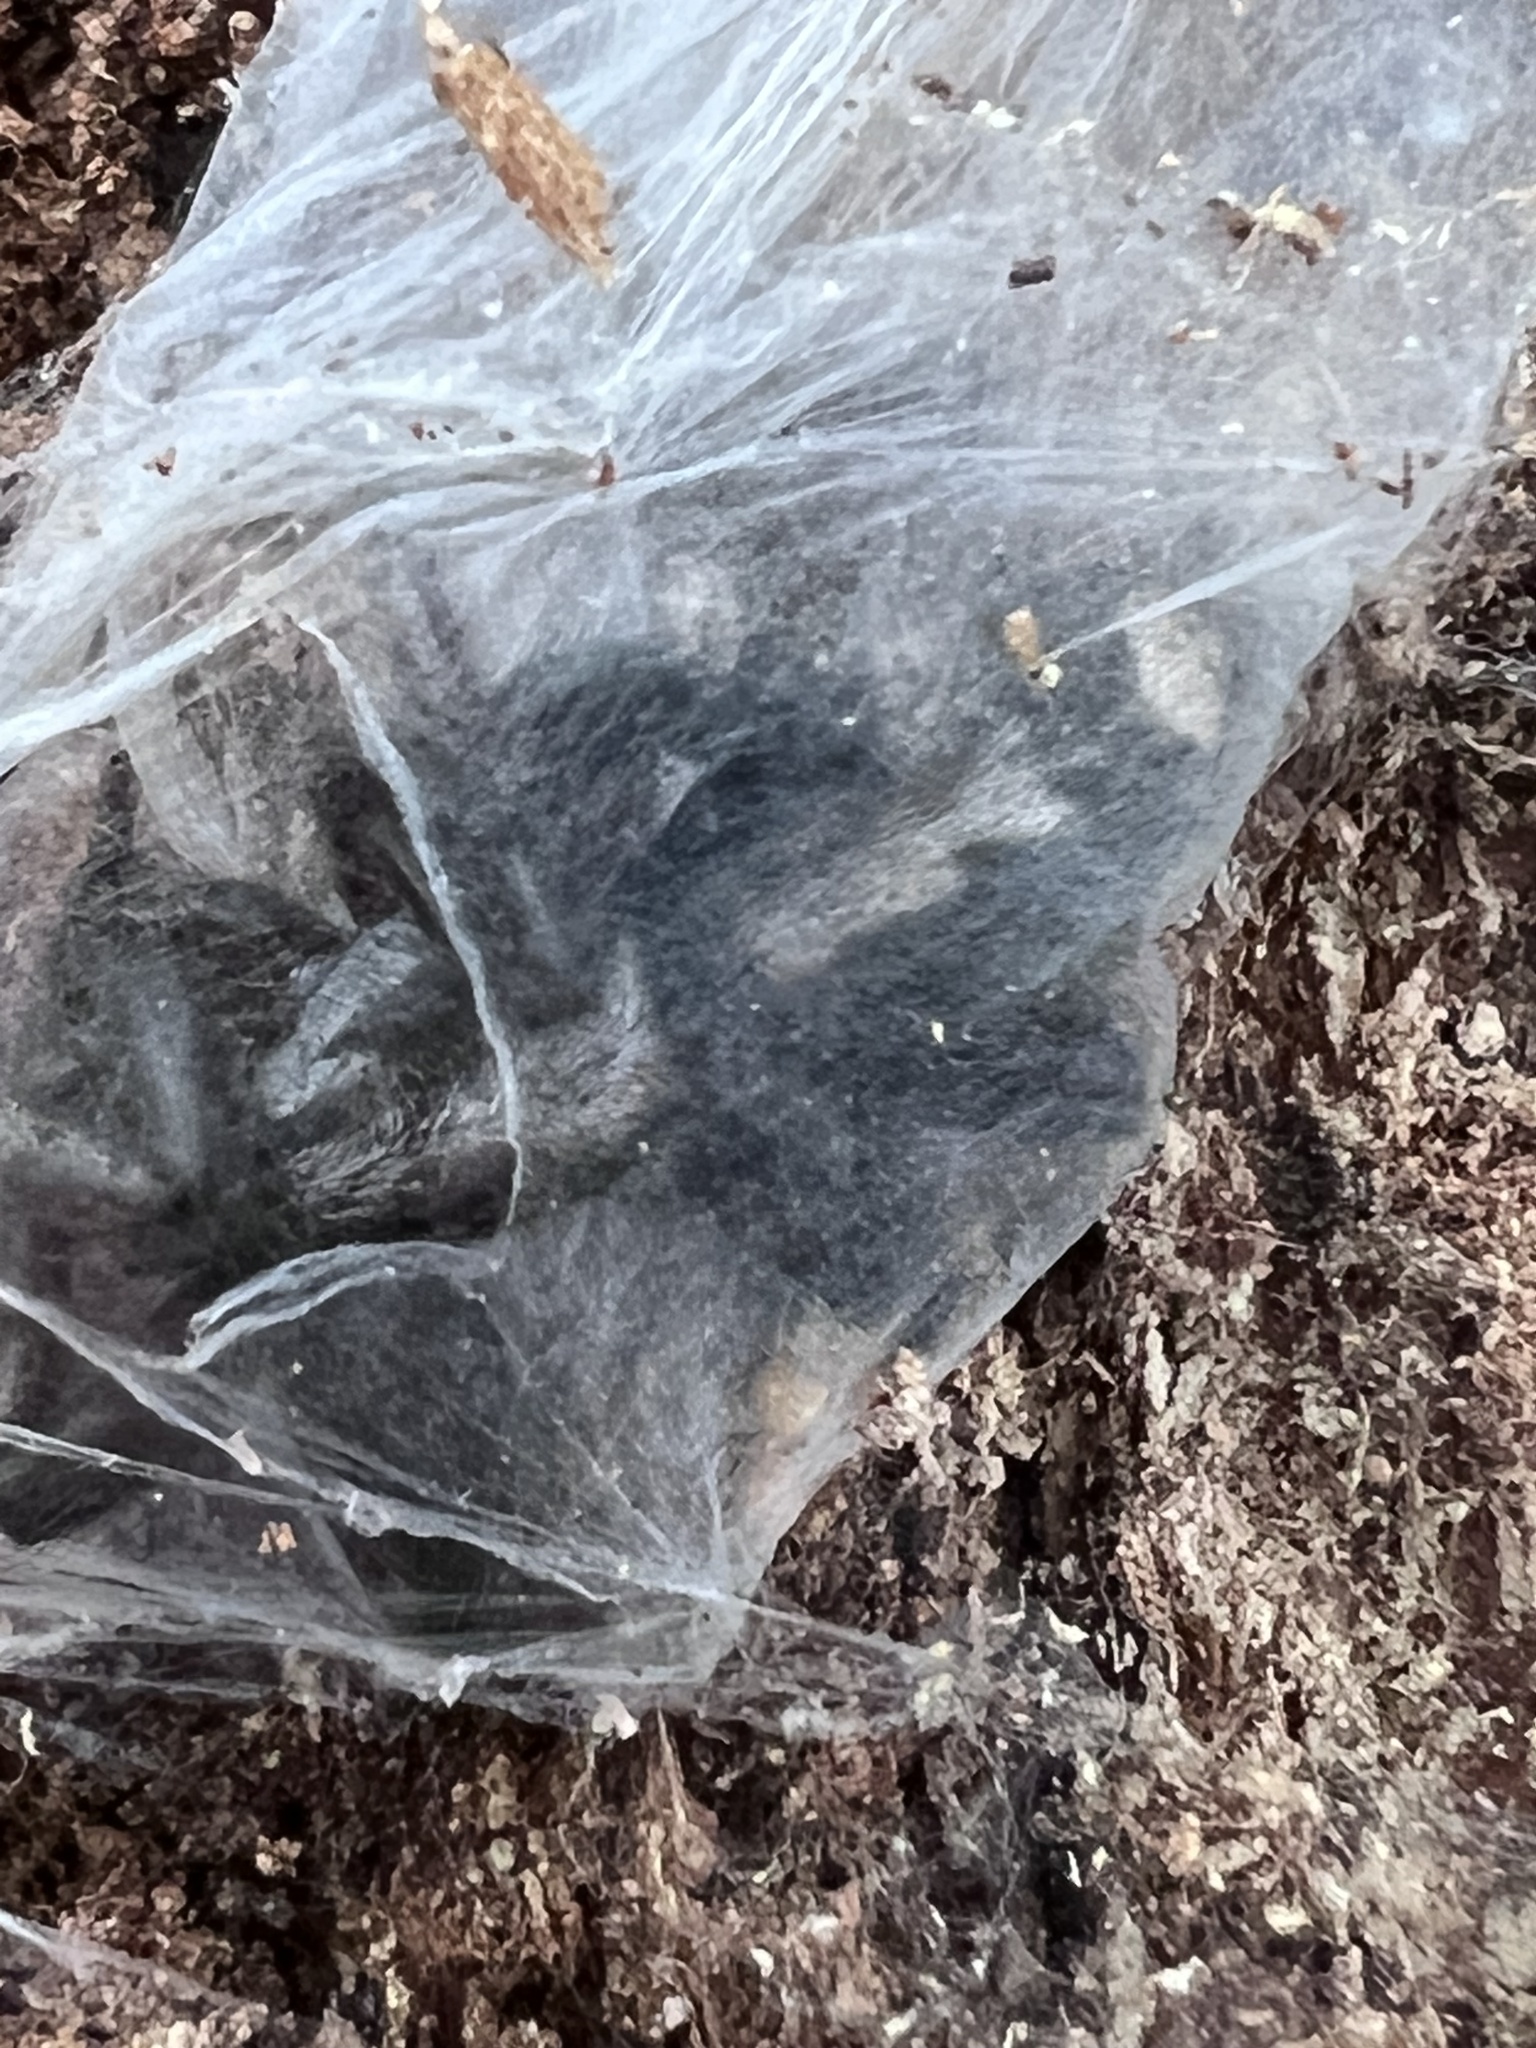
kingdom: Animalia
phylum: Arthropoda
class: Arachnida
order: Araneae
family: Gnaphosidae
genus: Herpyllus
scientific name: Herpyllus ecclesiasticus
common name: Eastern parson spider
